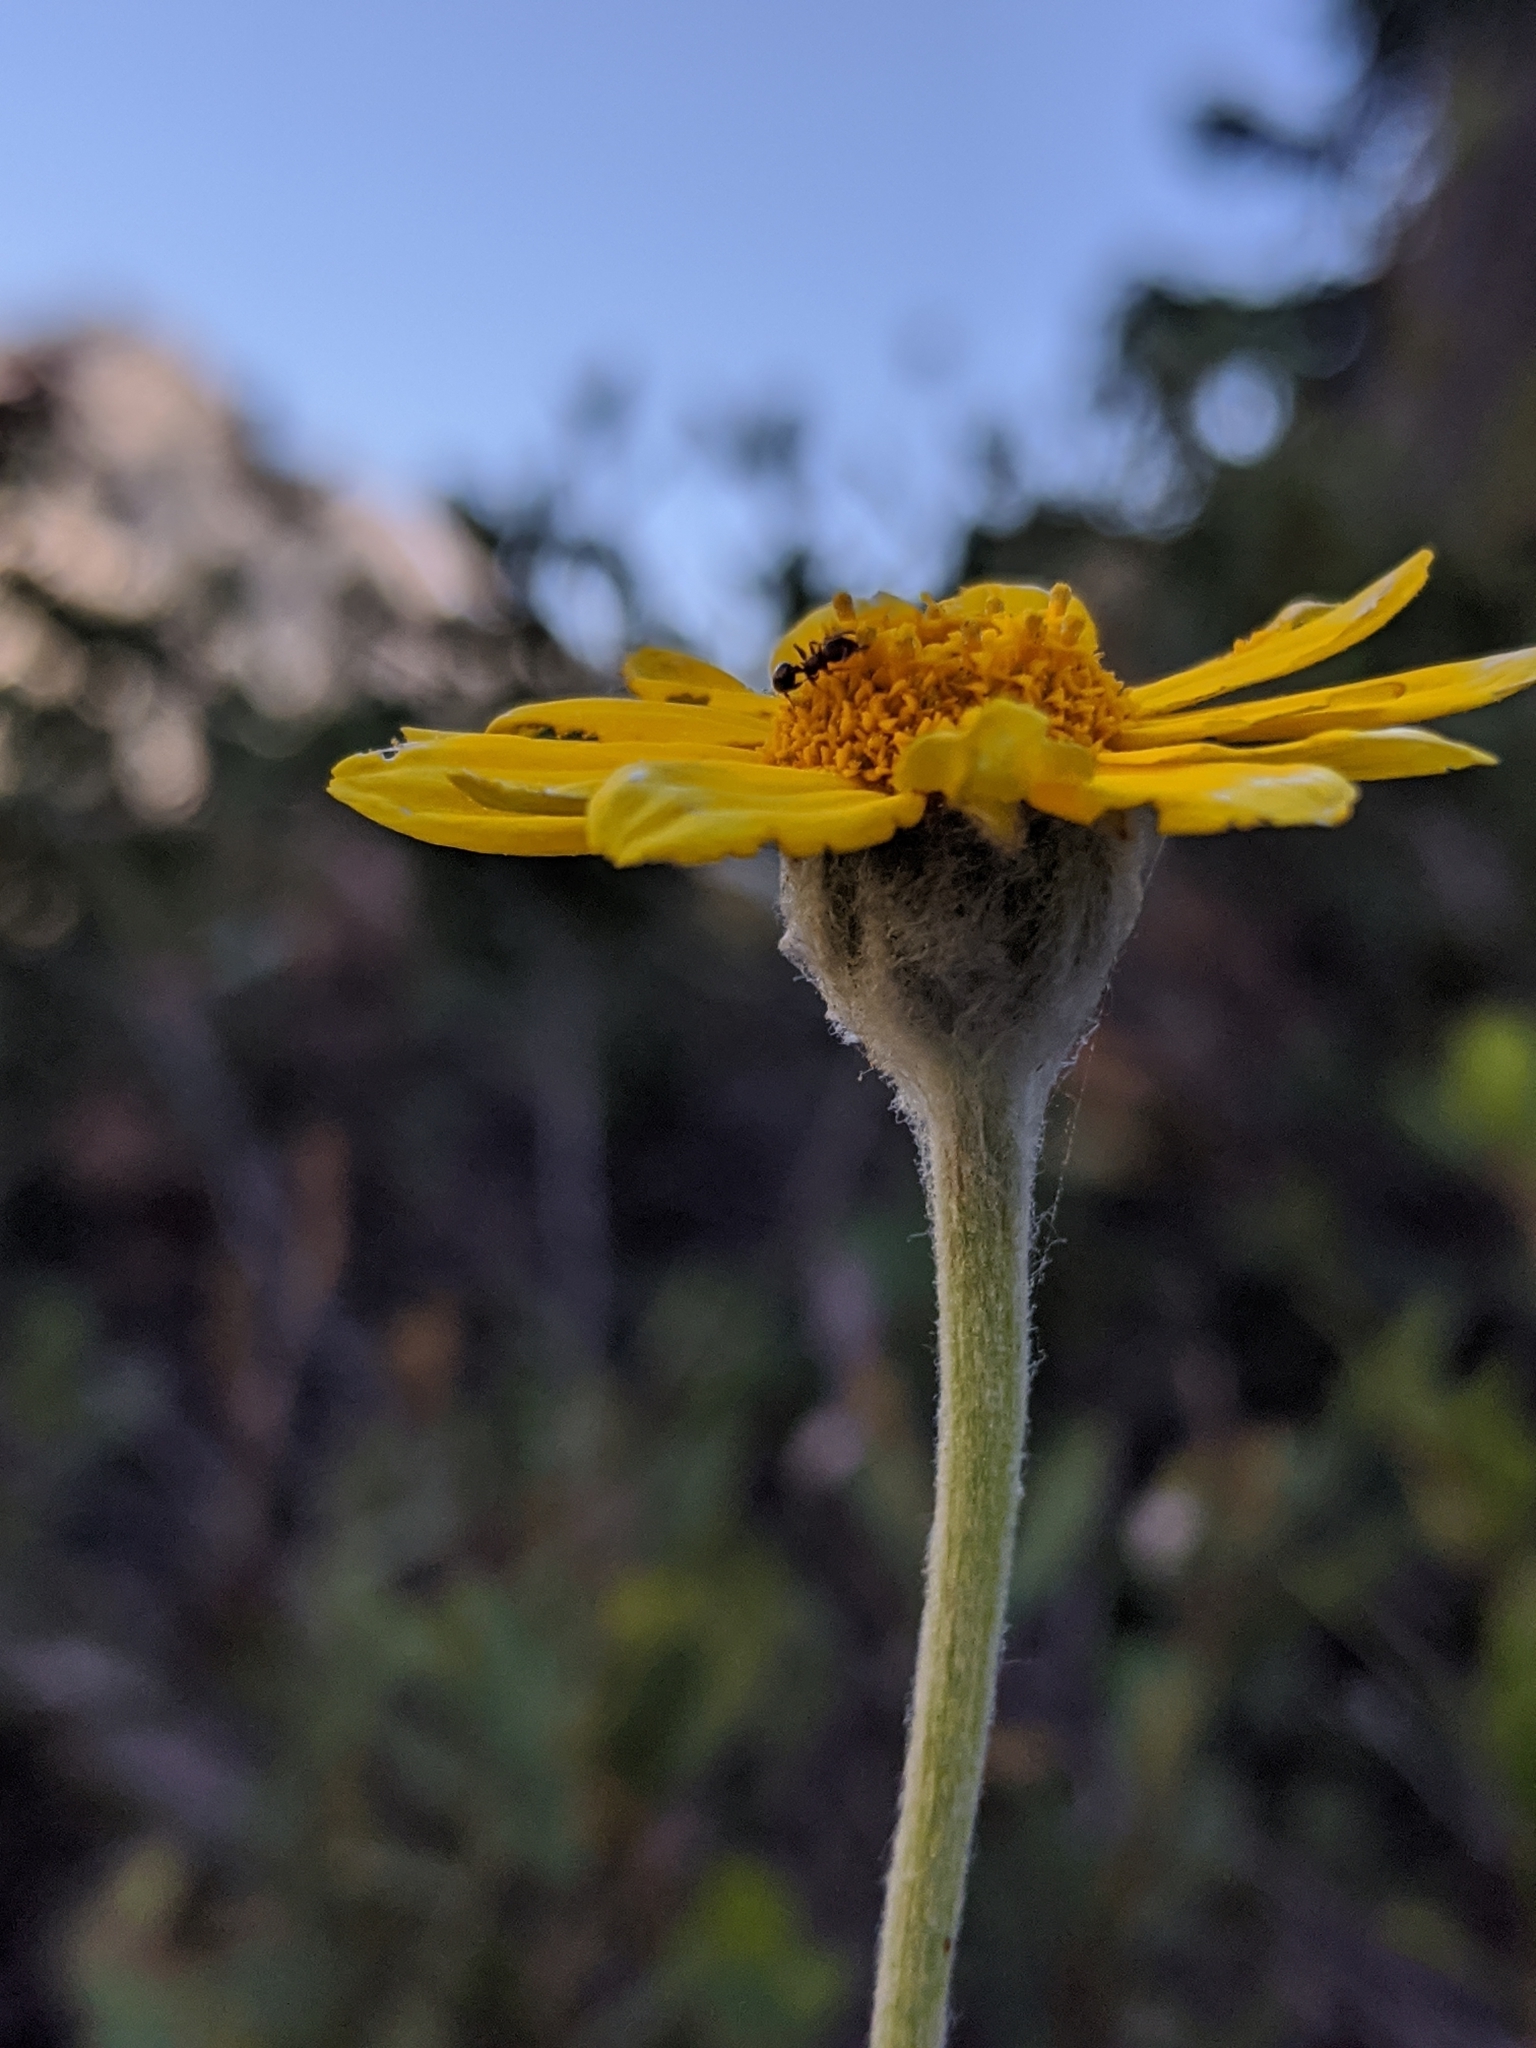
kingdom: Plantae
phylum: Tracheophyta
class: Magnoliopsida
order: Asterales
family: Asteraceae
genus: Eriophyllum
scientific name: Eriophyllum lanatum
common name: Common woolly-sunflower
